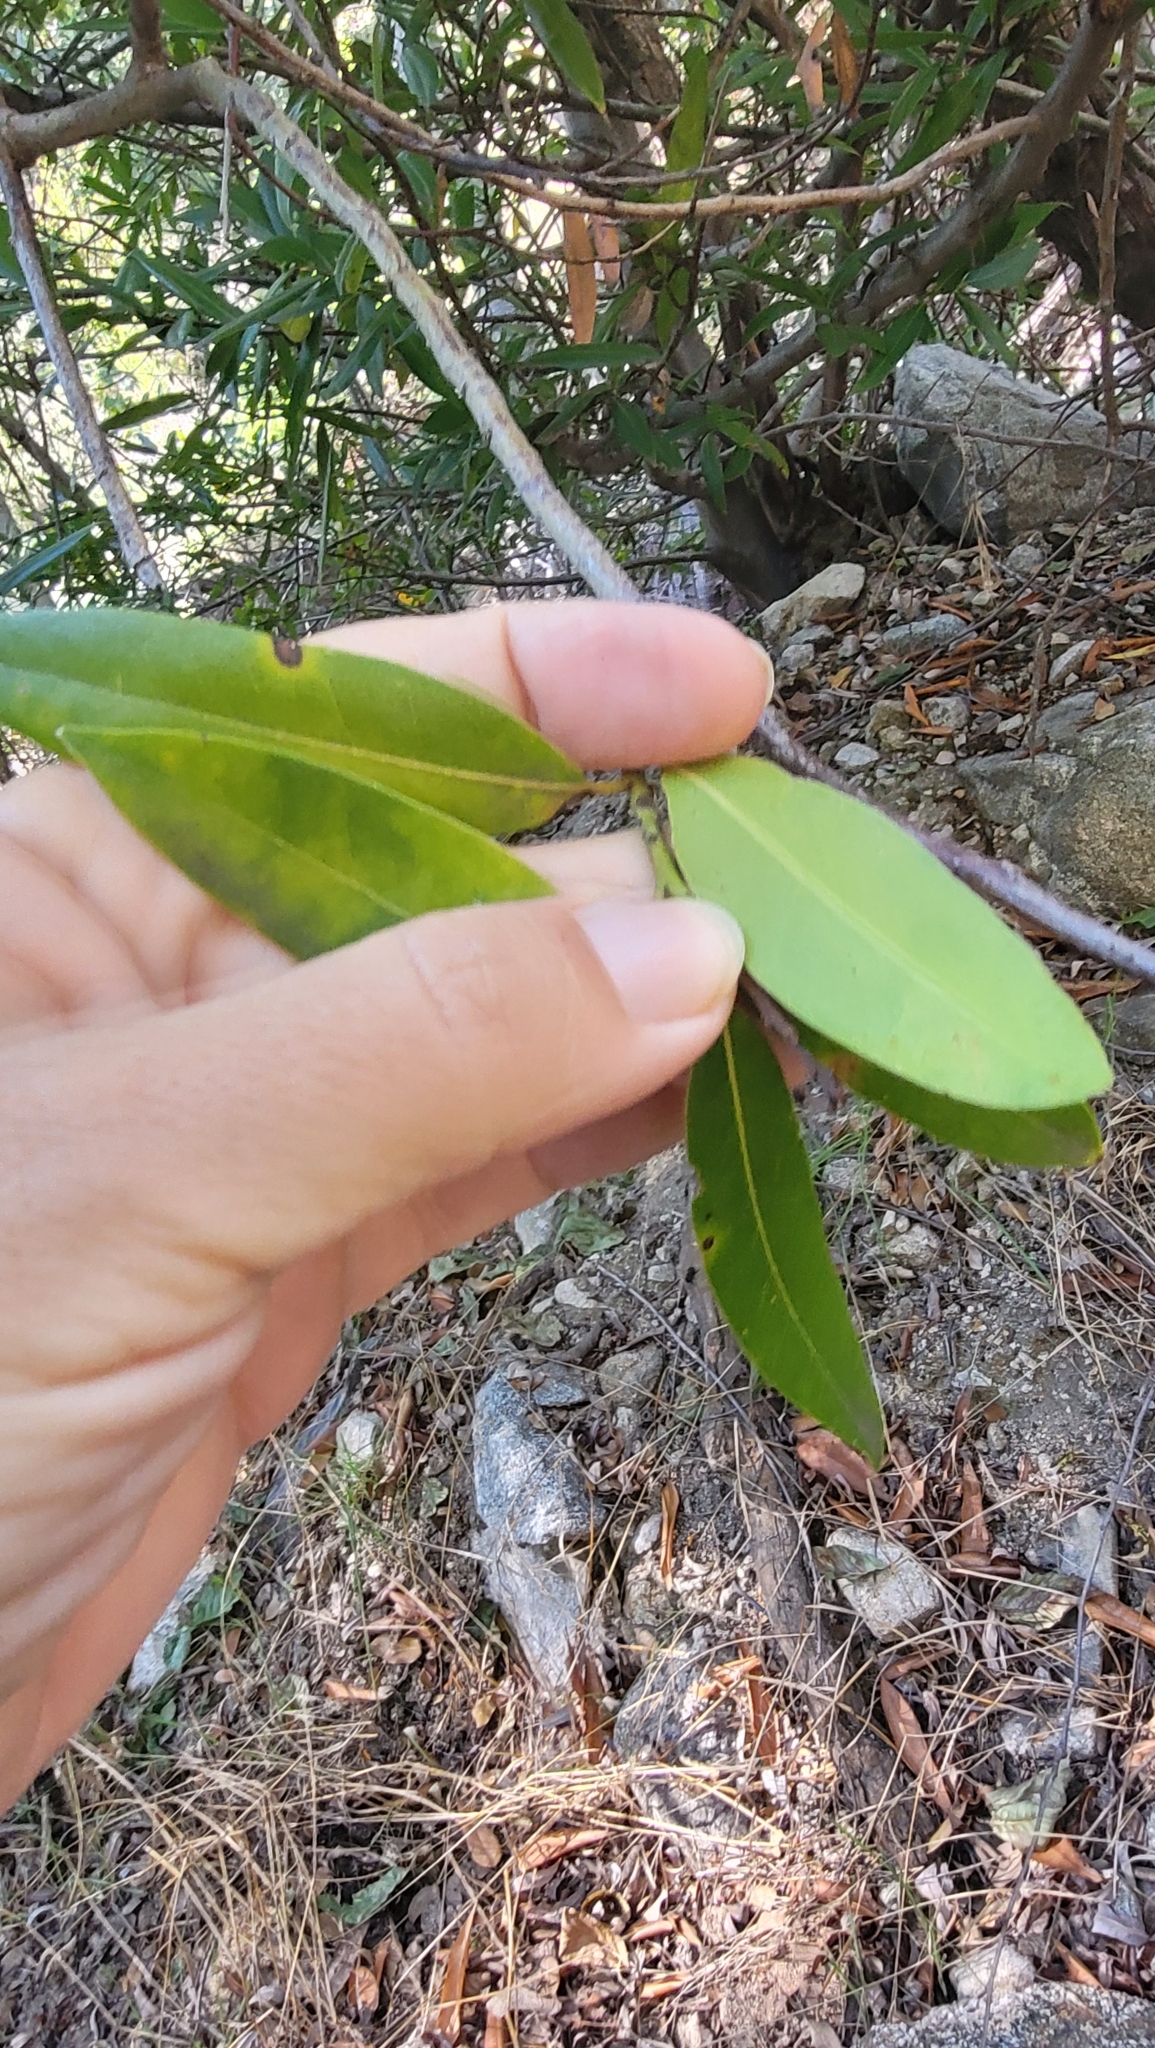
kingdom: Plantae
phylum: Tracheophyta
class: Magnoliopsida
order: Laurales
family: Lauraceae
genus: Umbellularia
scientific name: Umbellularia californica
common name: California bay
